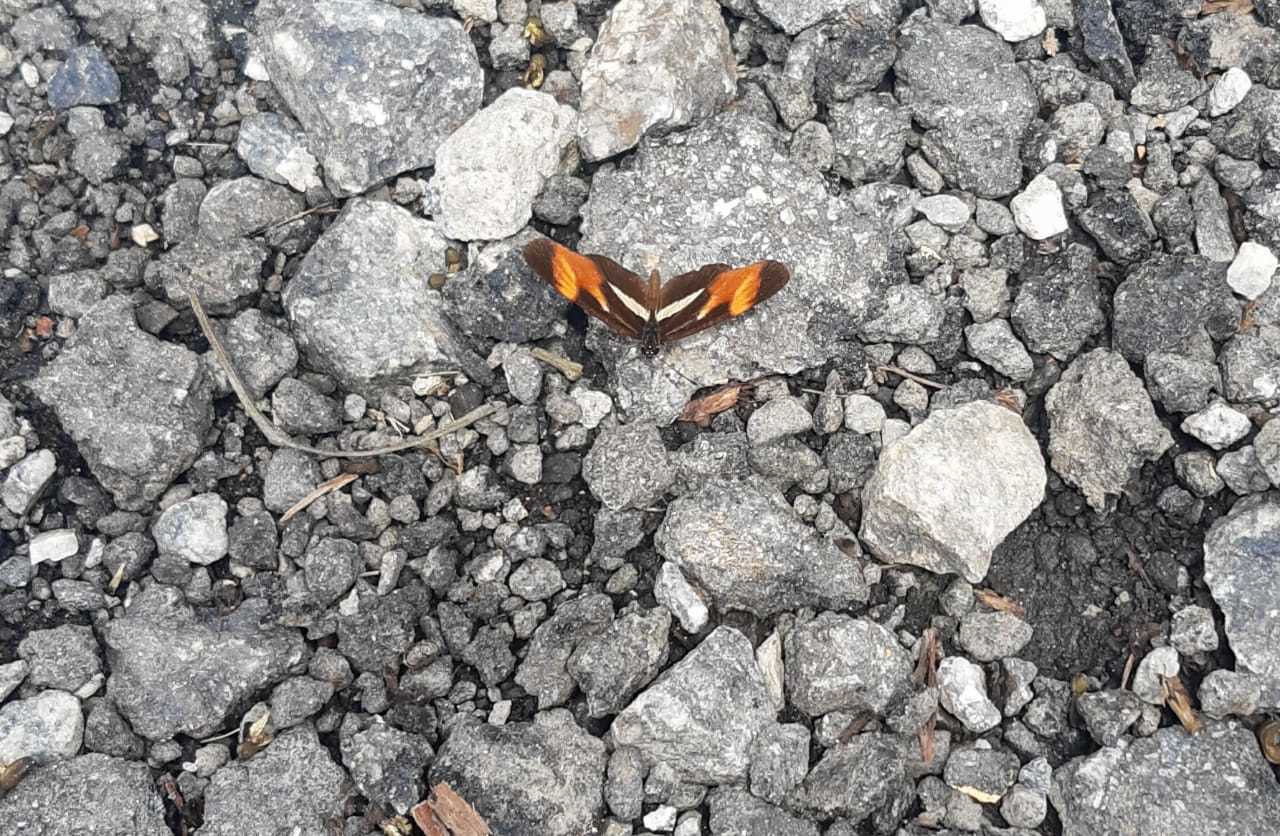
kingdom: Animalia
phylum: Arthropoda
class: Insecta
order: Lepidoptera
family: Nymphalidae
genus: Eresia
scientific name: Eresia lansdorfi
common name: Lansdorf's crescent
